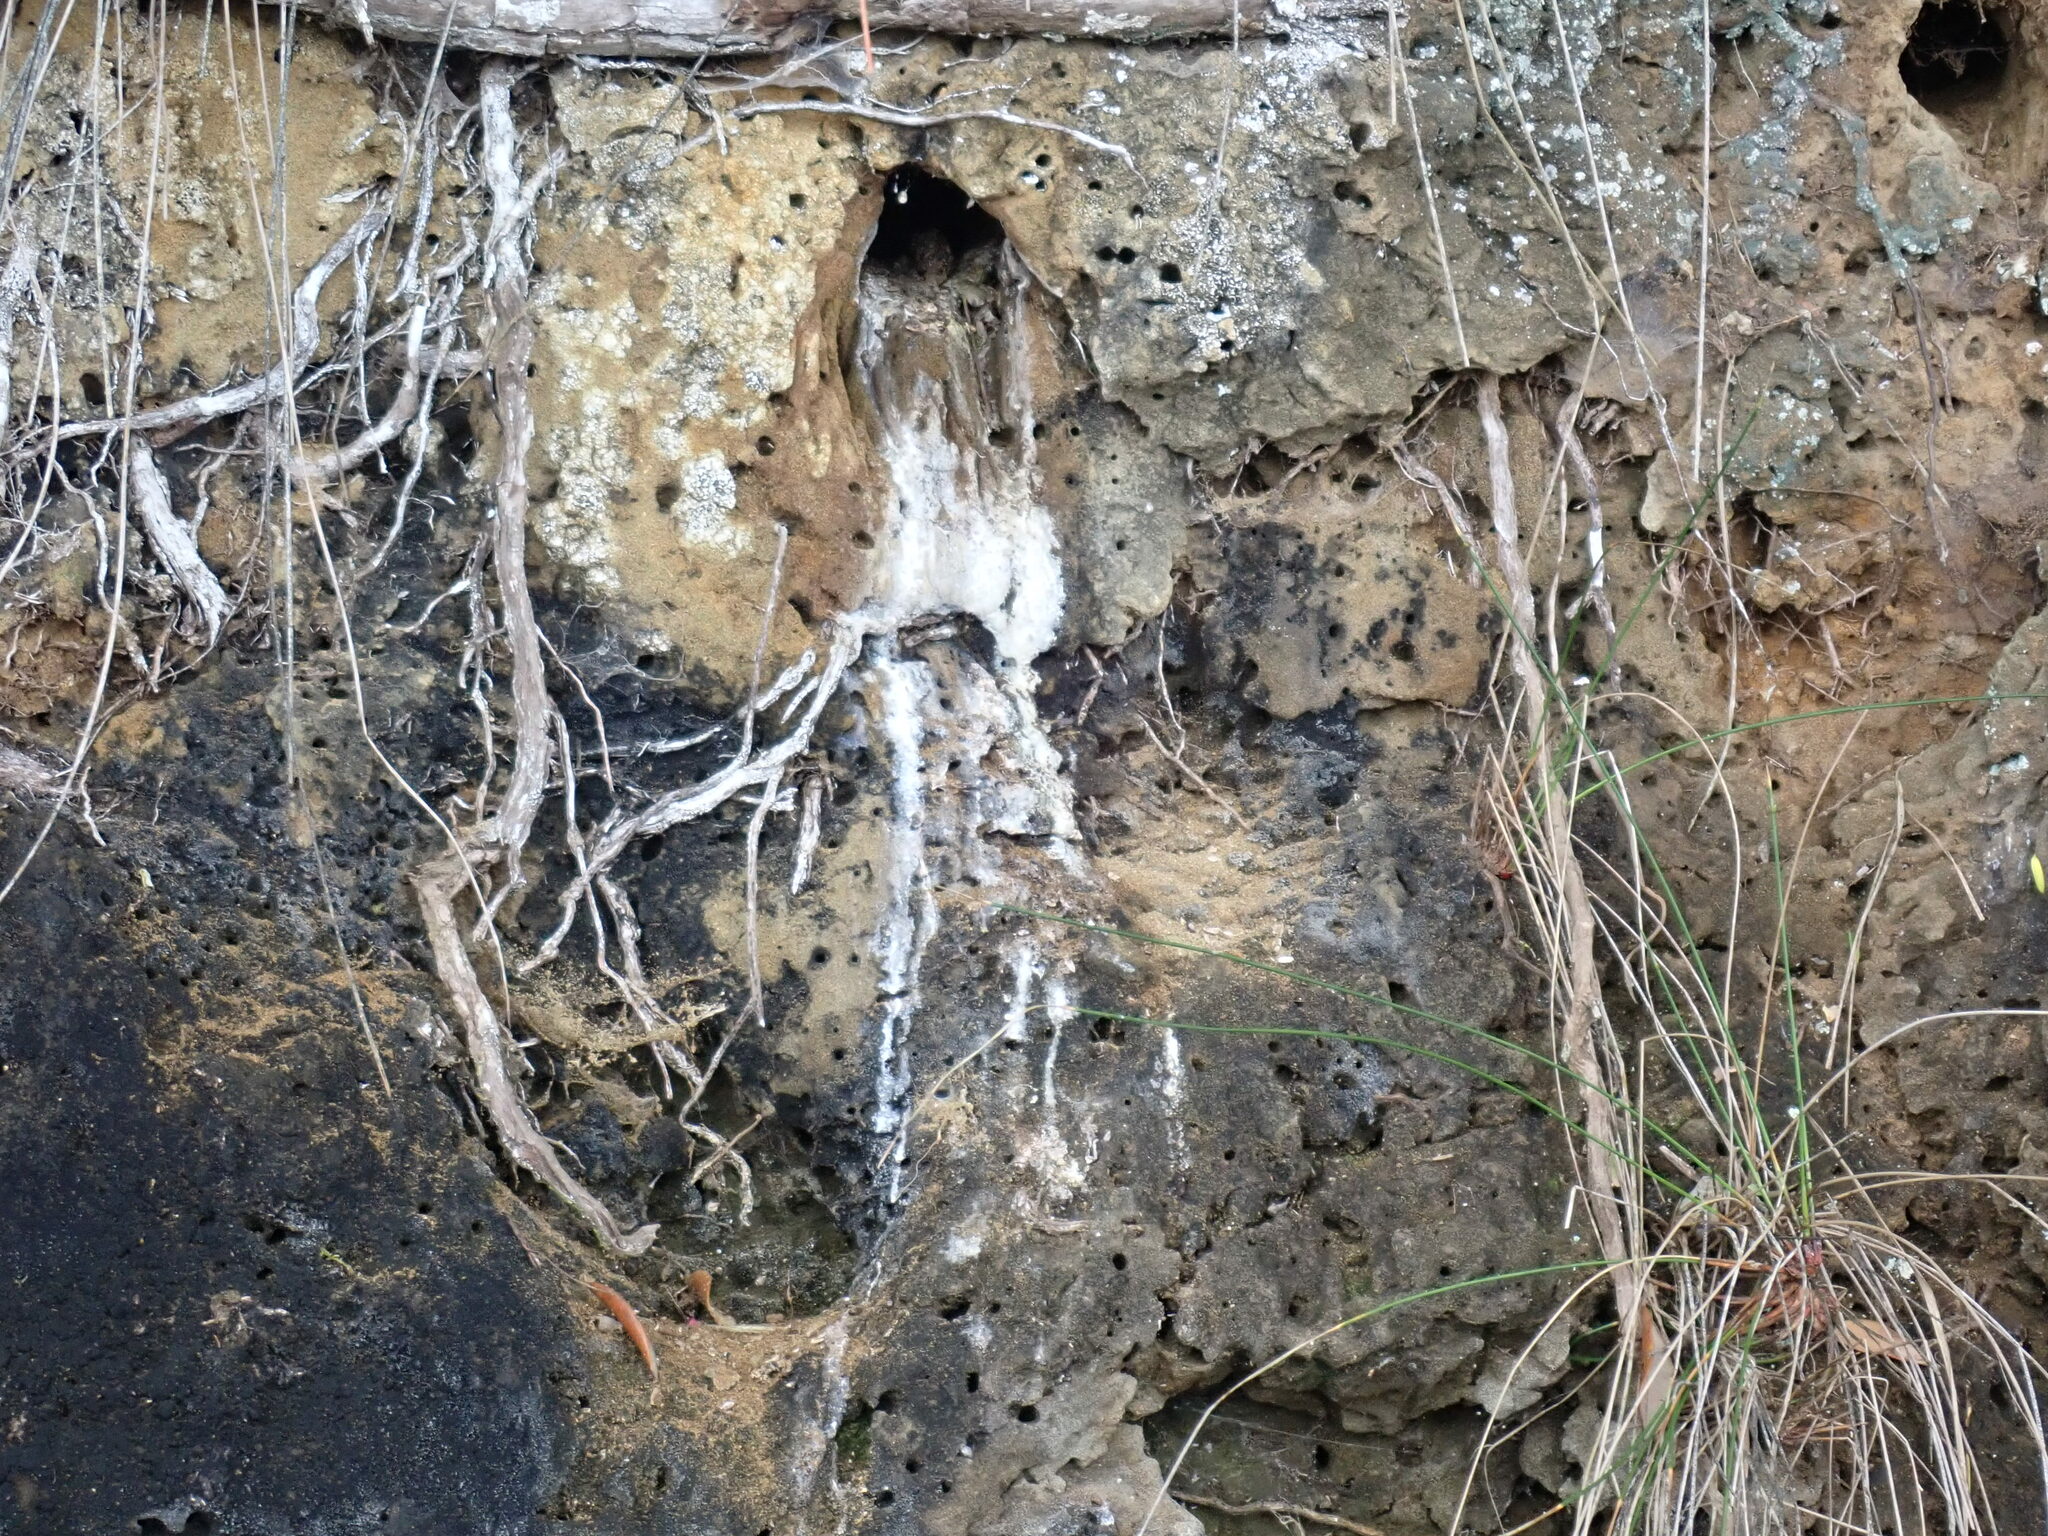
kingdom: Animalia
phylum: Chordata
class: Aves
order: Coraciiformes
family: Alcedinidae
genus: Todiramphus
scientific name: Todiramphus sanctus
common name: Sacred kingfisher
